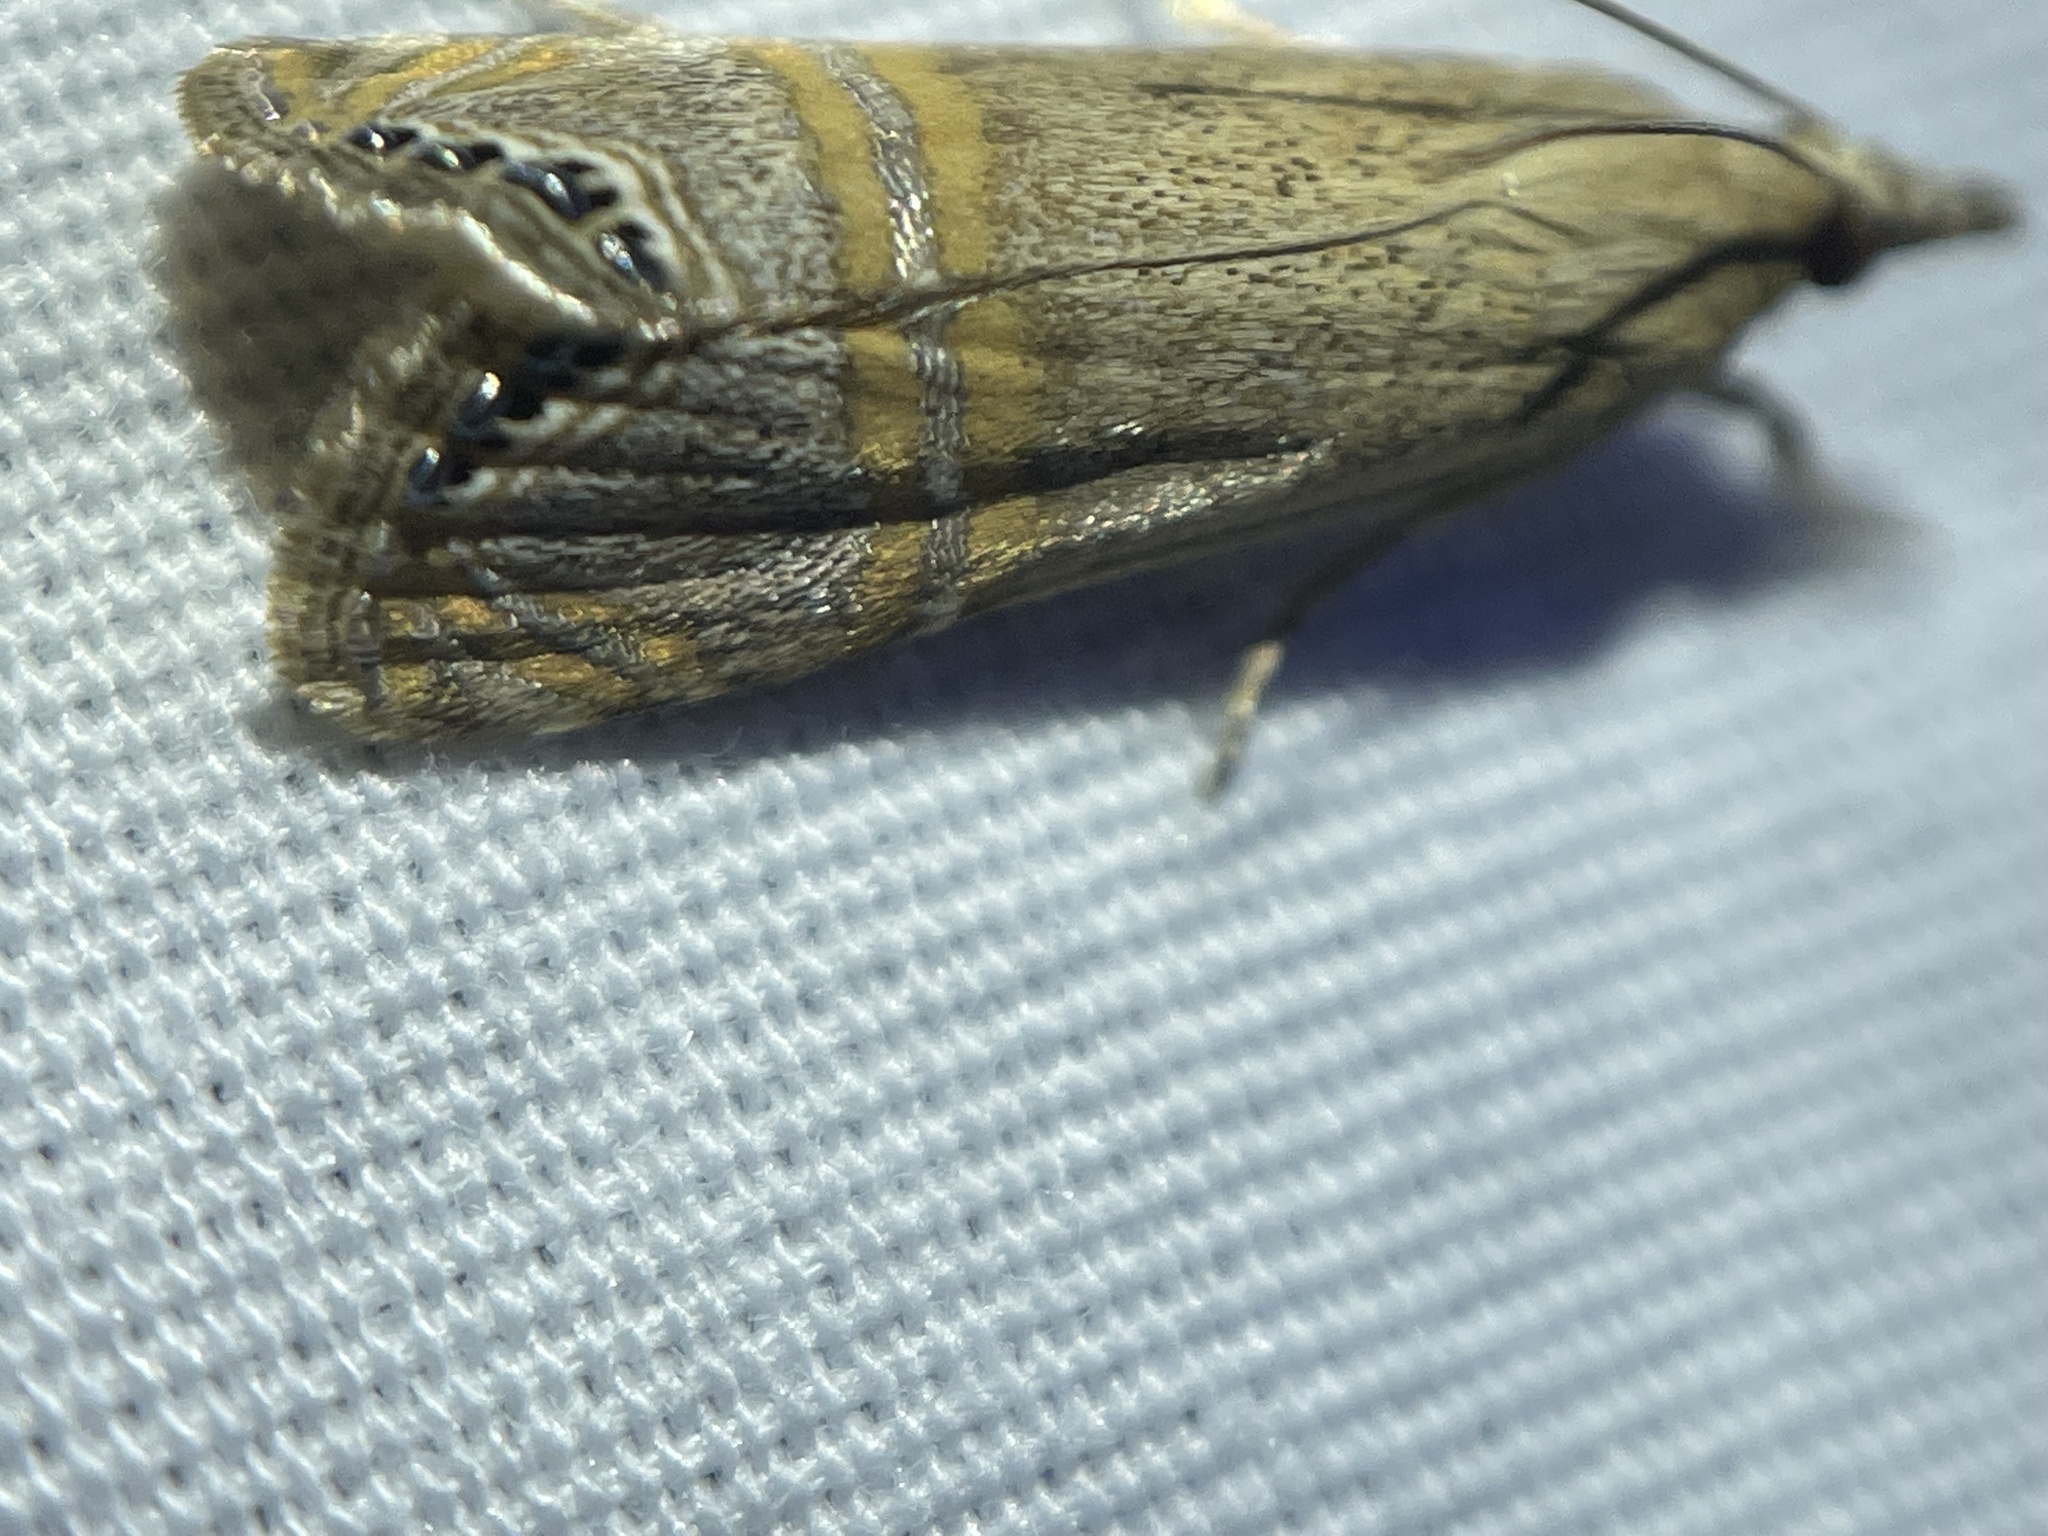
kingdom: Animalia
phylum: Arthropoda
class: Insecta
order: Lepidoptera
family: Crambidae
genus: Euchromius
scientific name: Euchromius ocellea
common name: Necklace veneer moth
